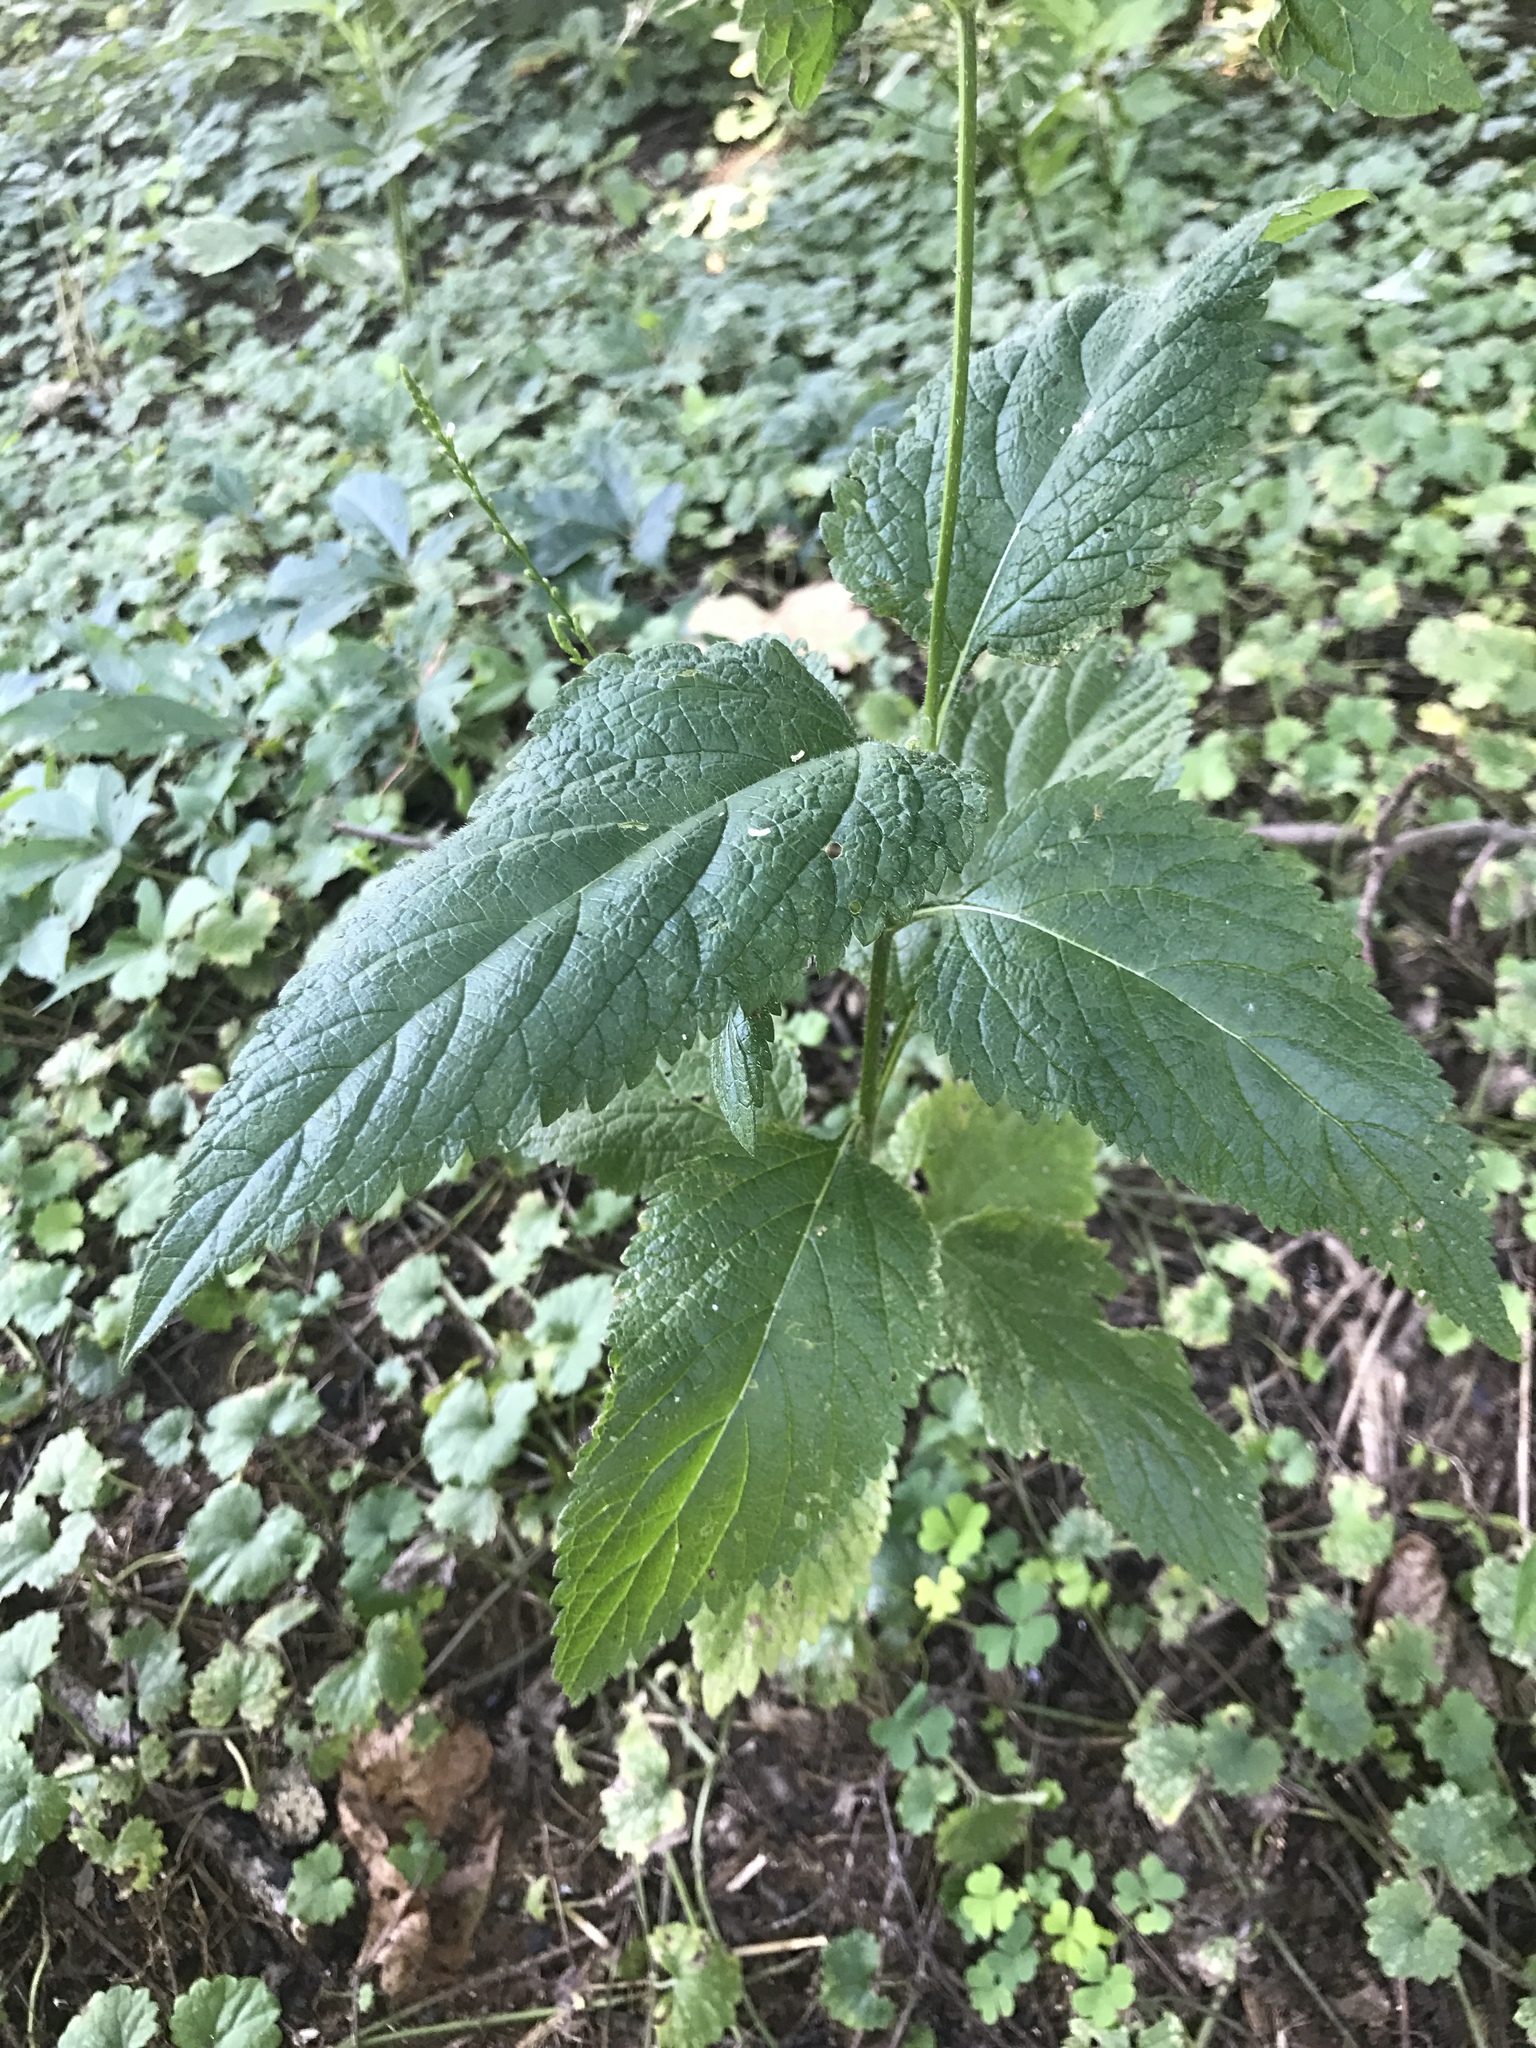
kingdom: Plantae
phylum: Tracheophyta
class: Magnoliopsida
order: Lamiales
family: Verbenaceae
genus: Verbena
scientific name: Verbena urticifolia
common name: Nettle-leaved vervain
